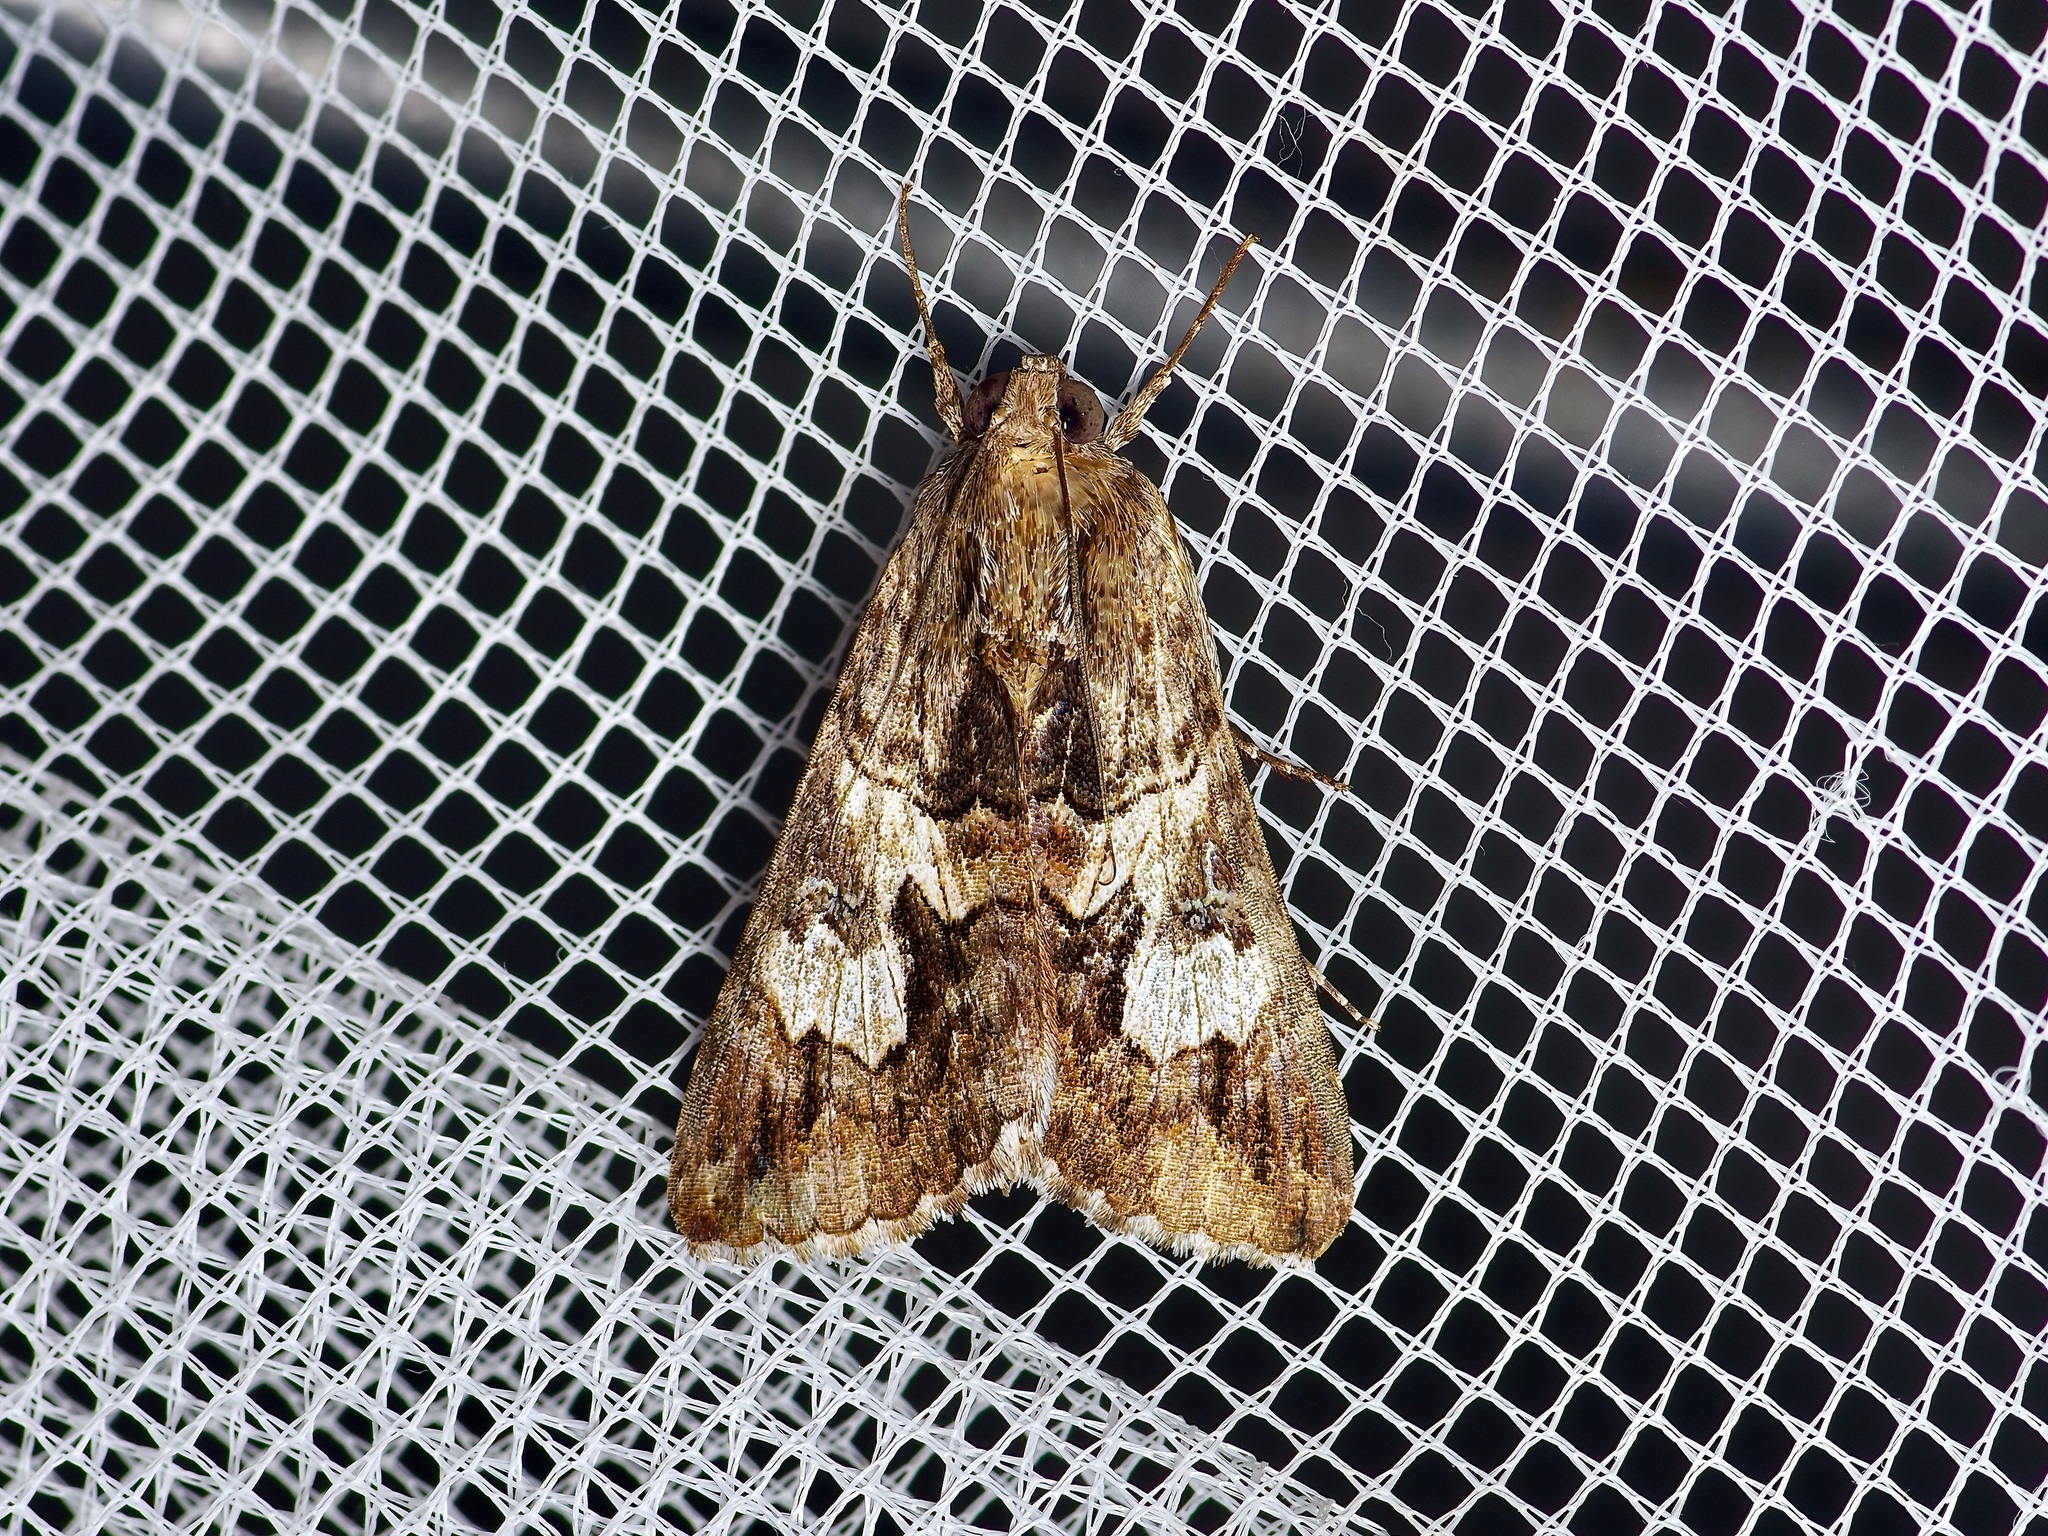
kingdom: Animalia
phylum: Arthropoda
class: Insecta
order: Lepidoptera
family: Erebidae
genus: Melipotis
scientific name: Melipotis jucunda
